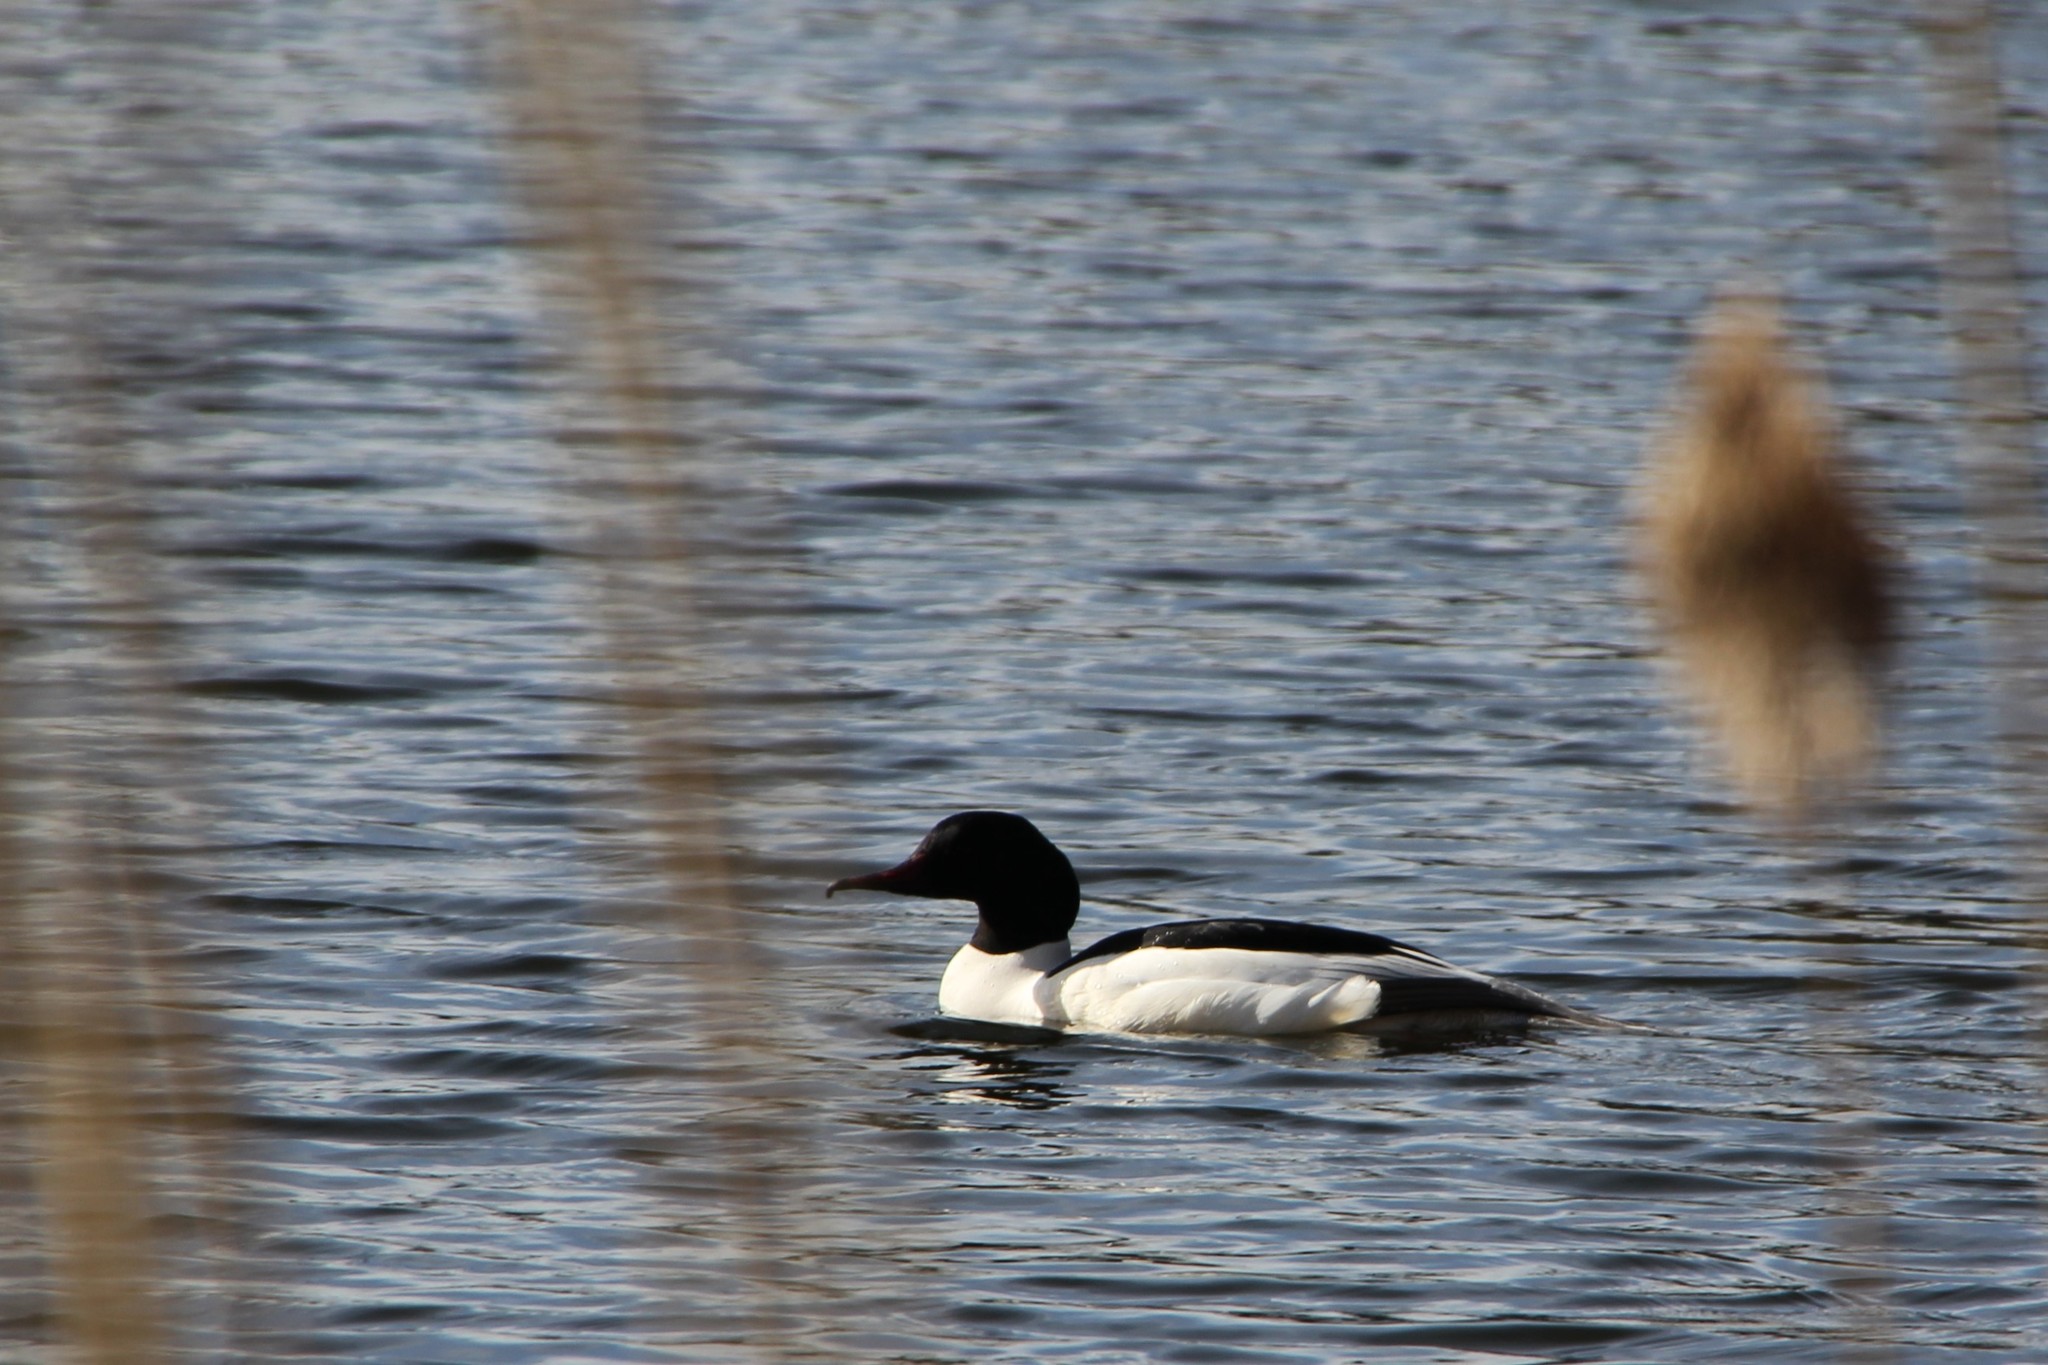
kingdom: Animalia
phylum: Chordata
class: Aves
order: Anseriformes
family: Anatidae
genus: Mergus
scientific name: Mergus merganser
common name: Common merganser
